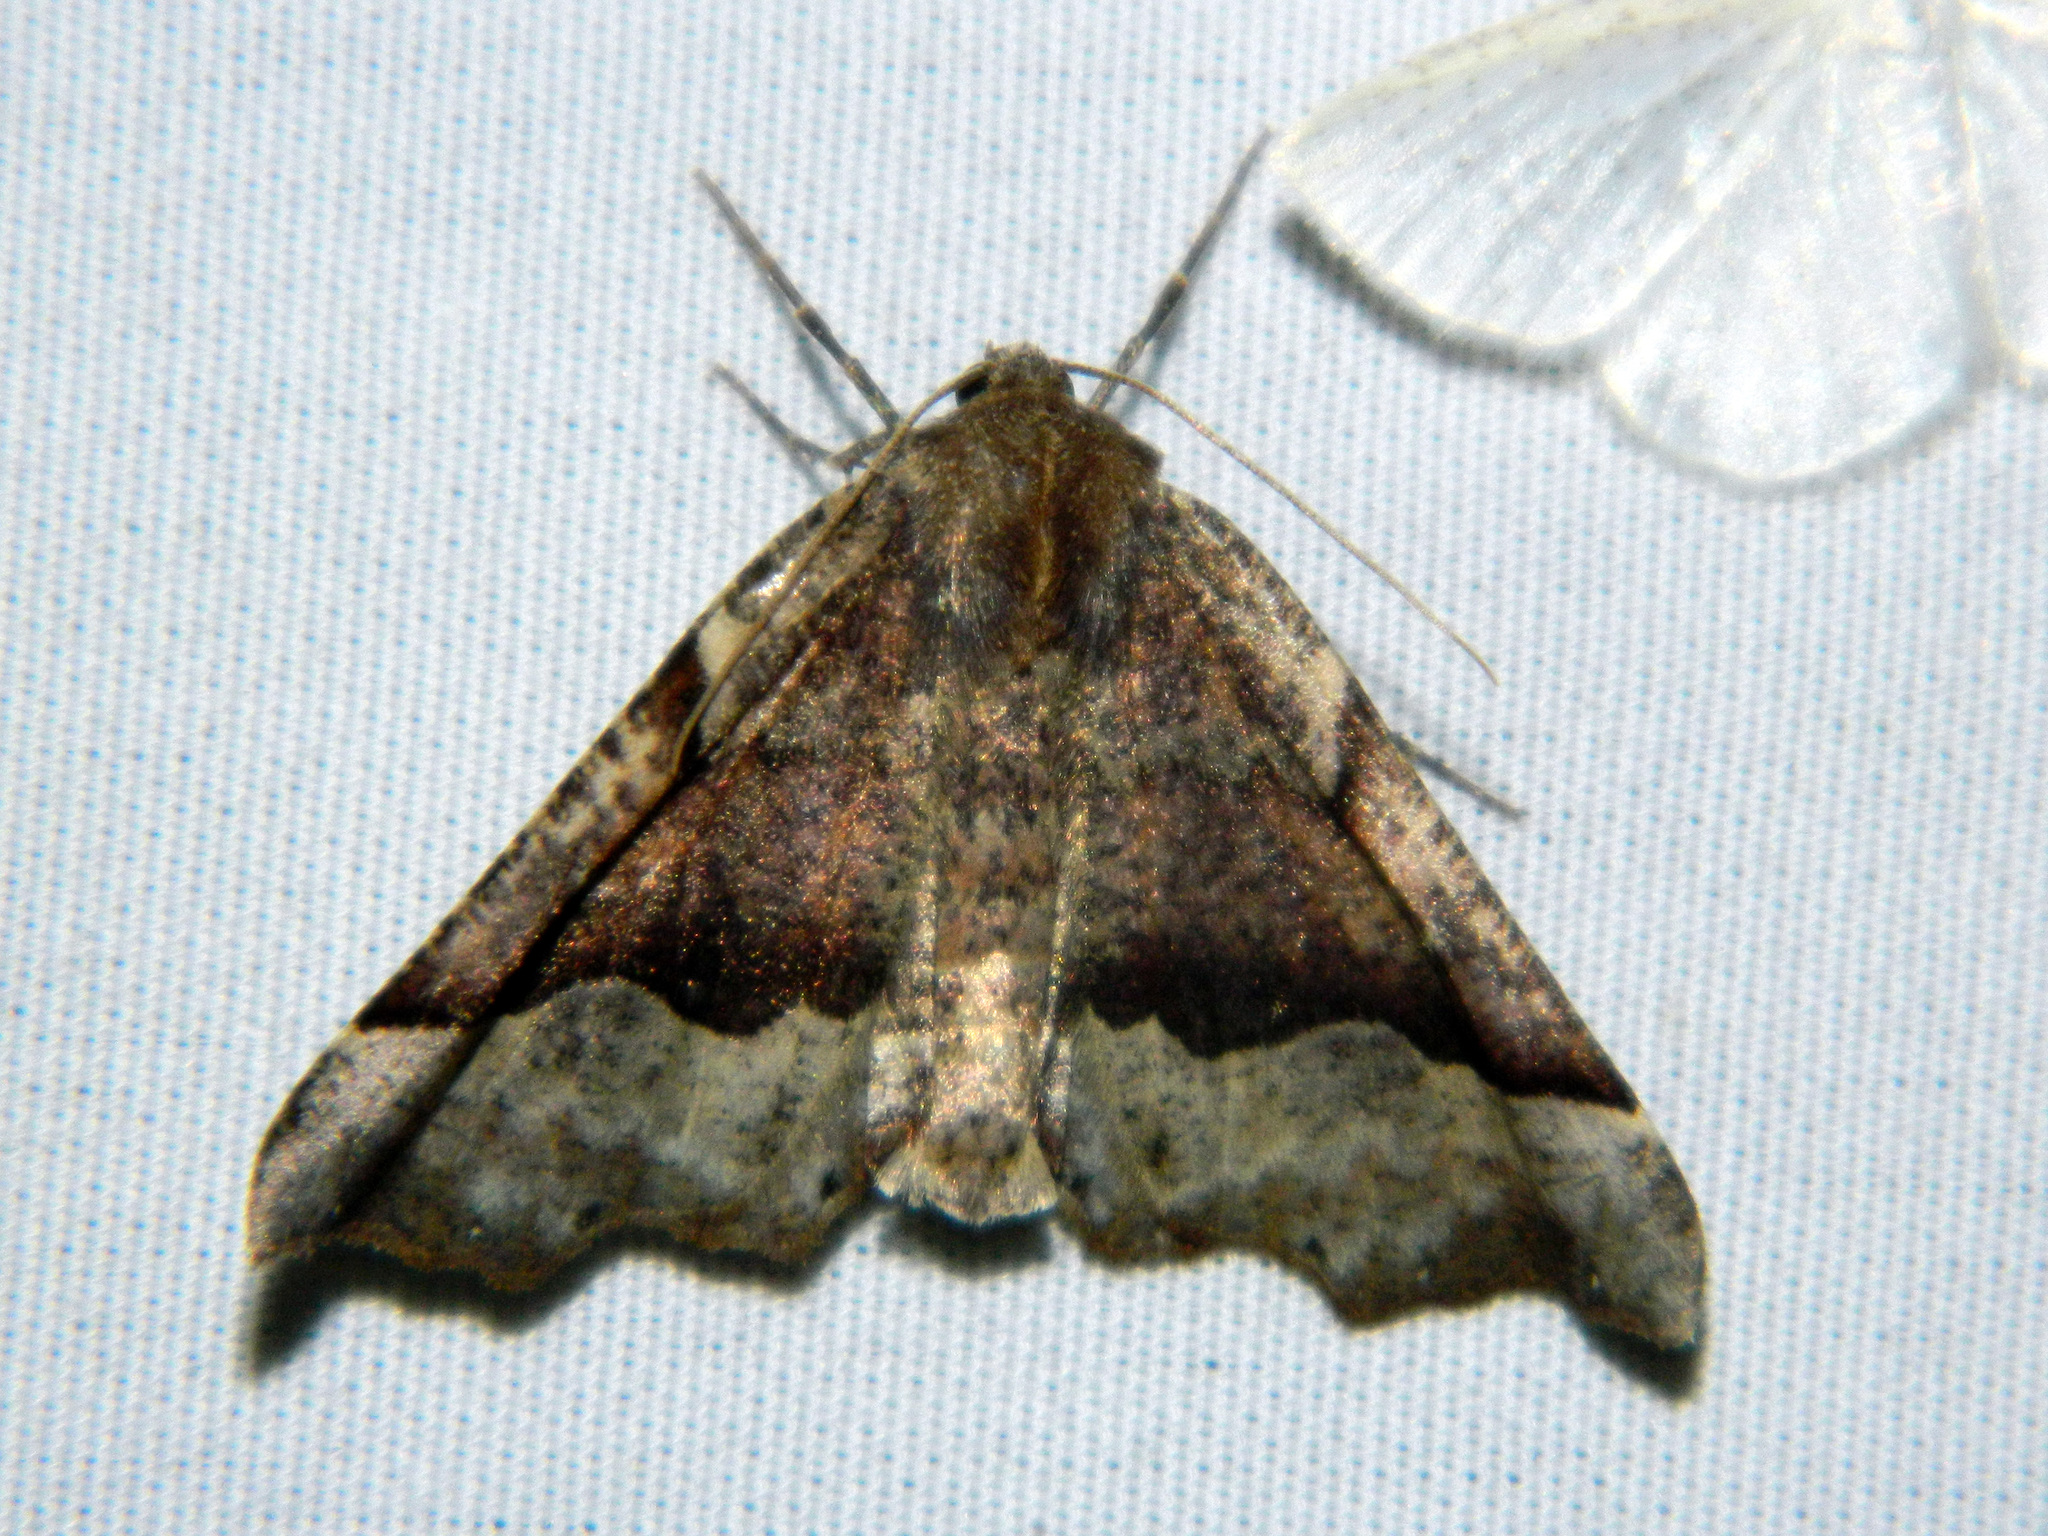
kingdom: Animalia
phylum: Arthropoda
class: Insecta
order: Lepidoptera
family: Geometridae
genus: Pero
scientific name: Pero morrisonaria
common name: Morrison's pero
